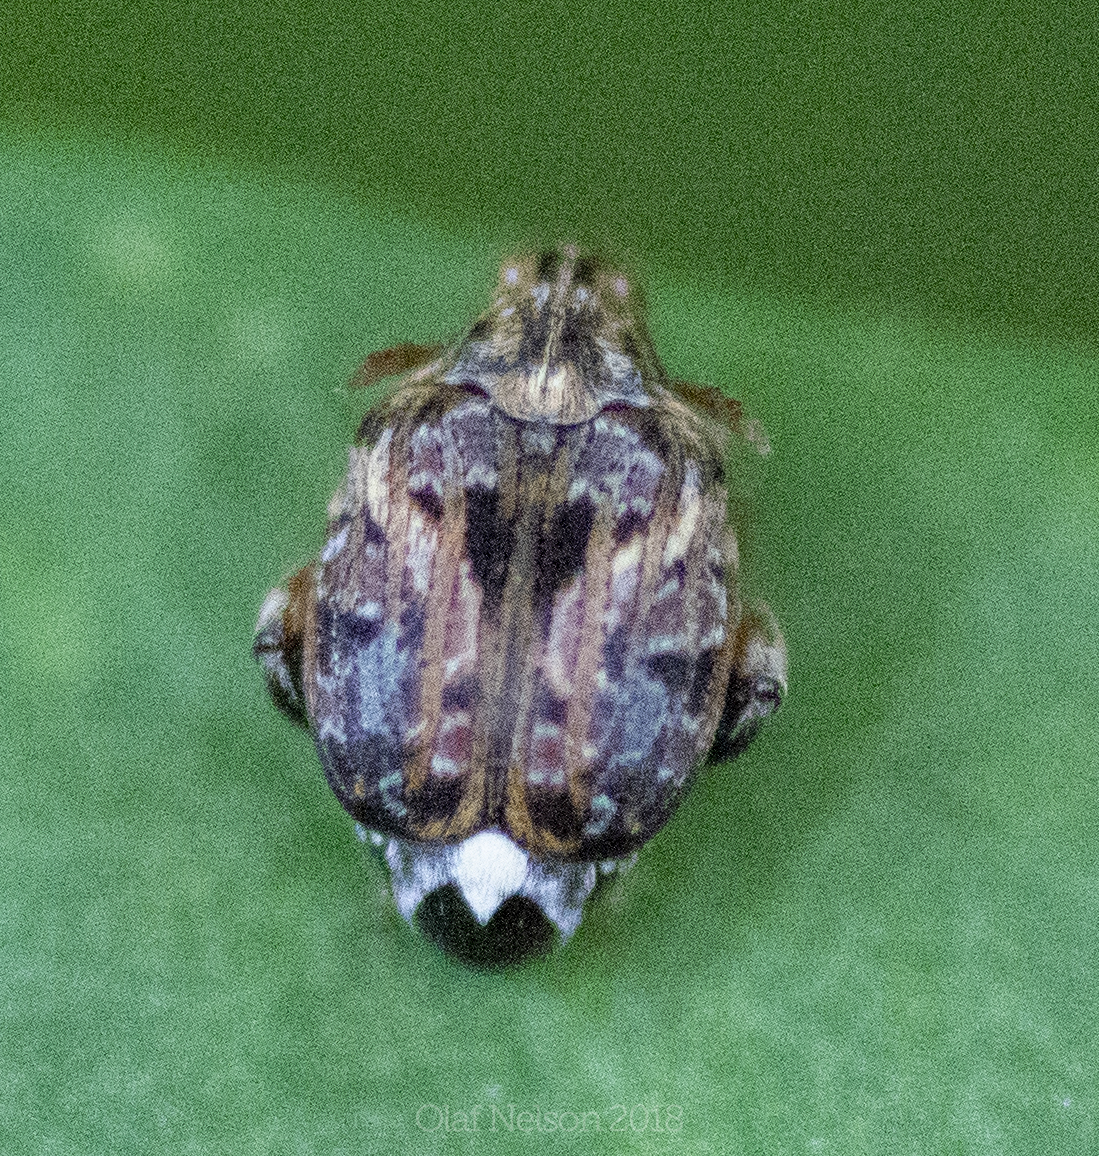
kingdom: Animalia
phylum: Arthropoda
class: Insecta
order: Coleoptera
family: Chrysomelidae
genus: Gibbobruchus
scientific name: Gibbobruchus mimus
